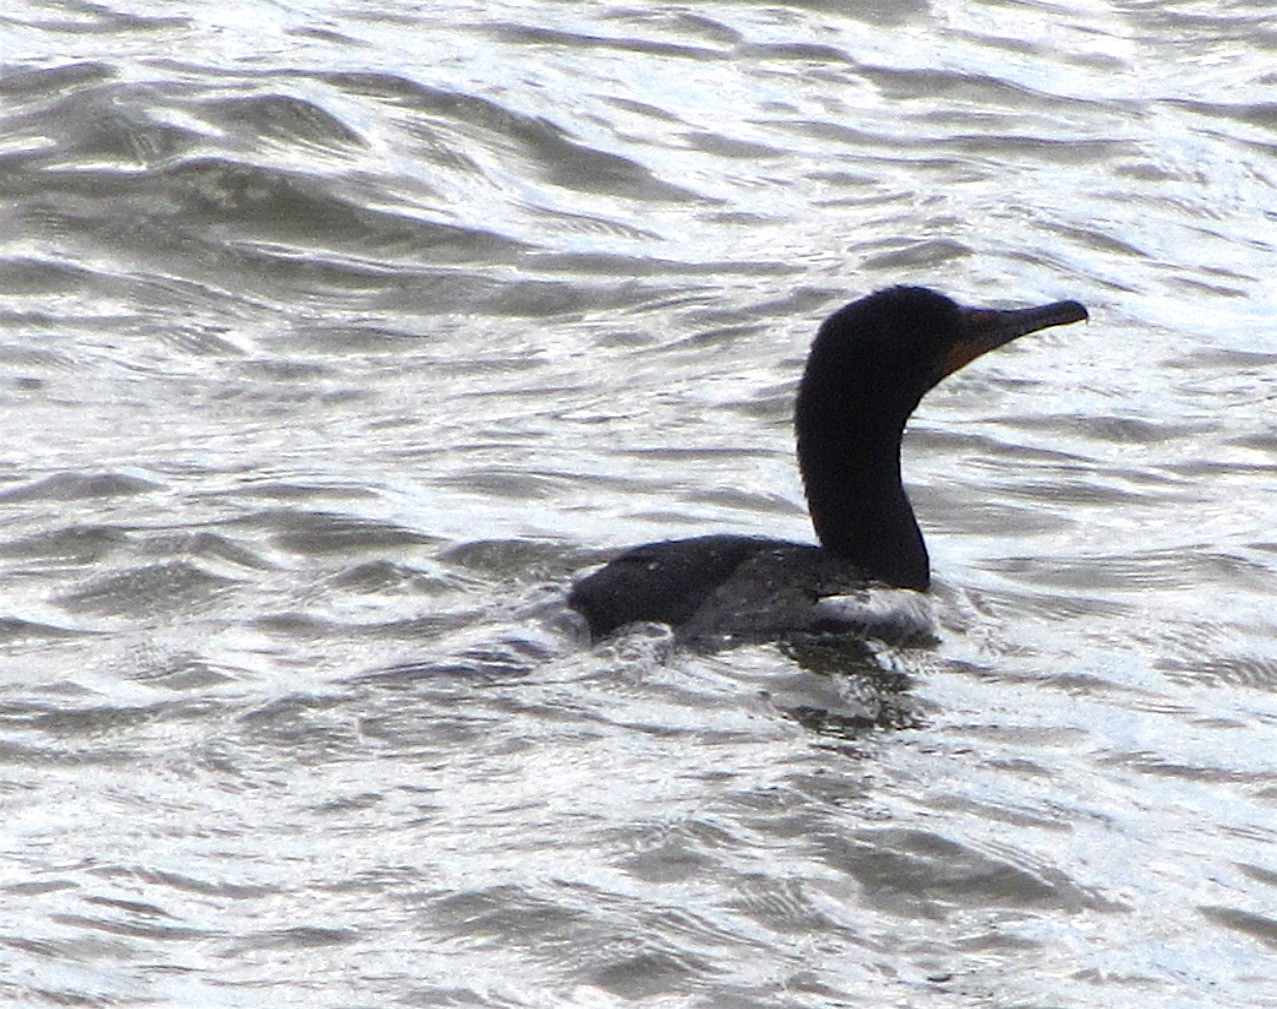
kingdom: Animalia
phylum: Chordata
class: Aves
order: Suliformes
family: Phalacrocoracidae
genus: Phalacrocorax
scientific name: Phalacrocorax auritus
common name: Double-crested cormorant
